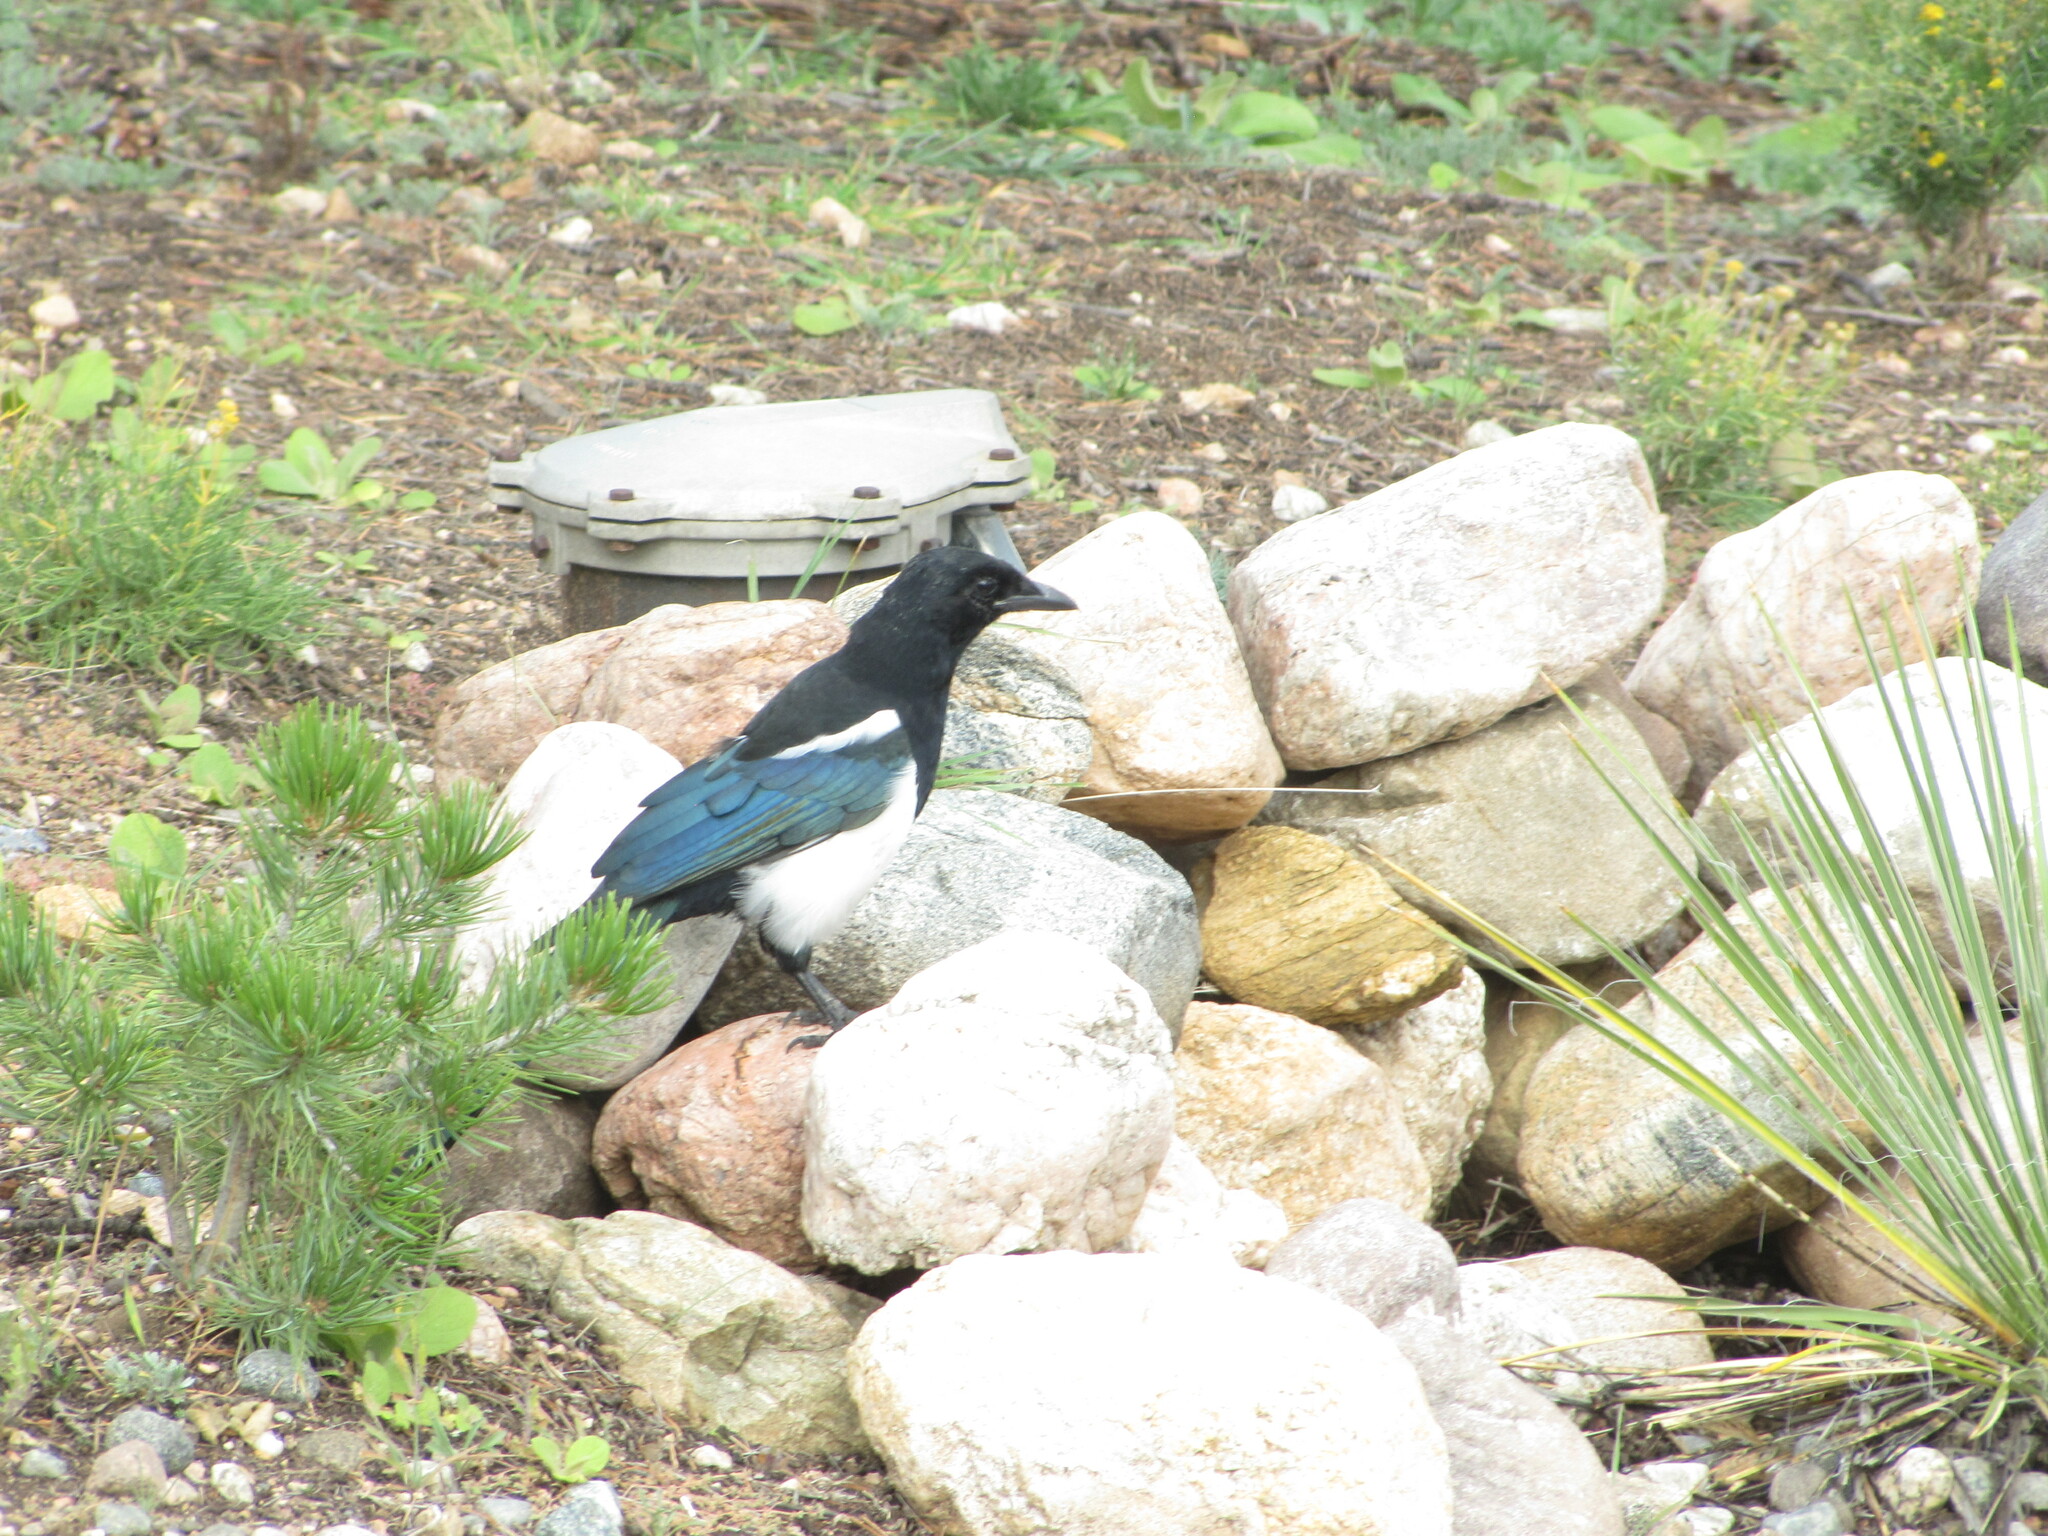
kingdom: Animalia
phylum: Chordata
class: Aves
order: Passeriformes
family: Corvidae
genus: Pica
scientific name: Pica hudsonia
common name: Black-billed magpie
